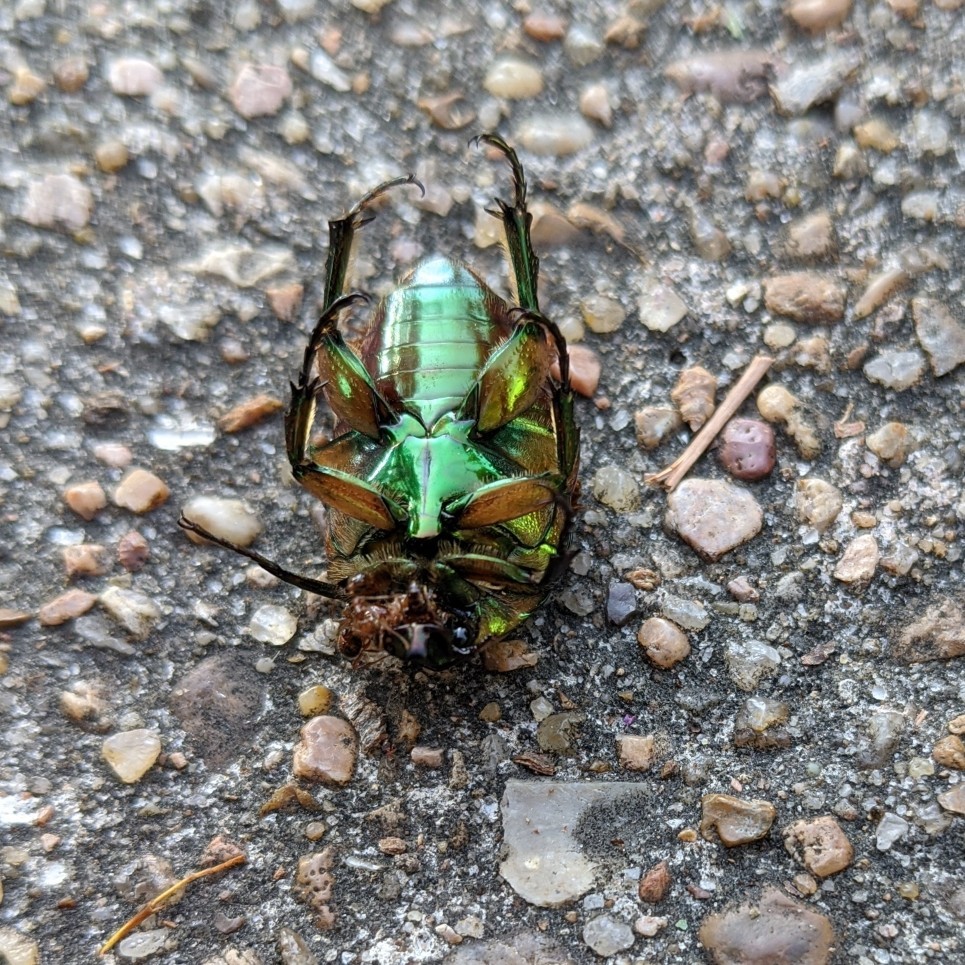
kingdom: Animalia
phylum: Arthropoda
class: Insecta
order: Coleoptera
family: Scarabaeidae
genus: Cotinis
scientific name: Cotinis nitida
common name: Common green june beetle
